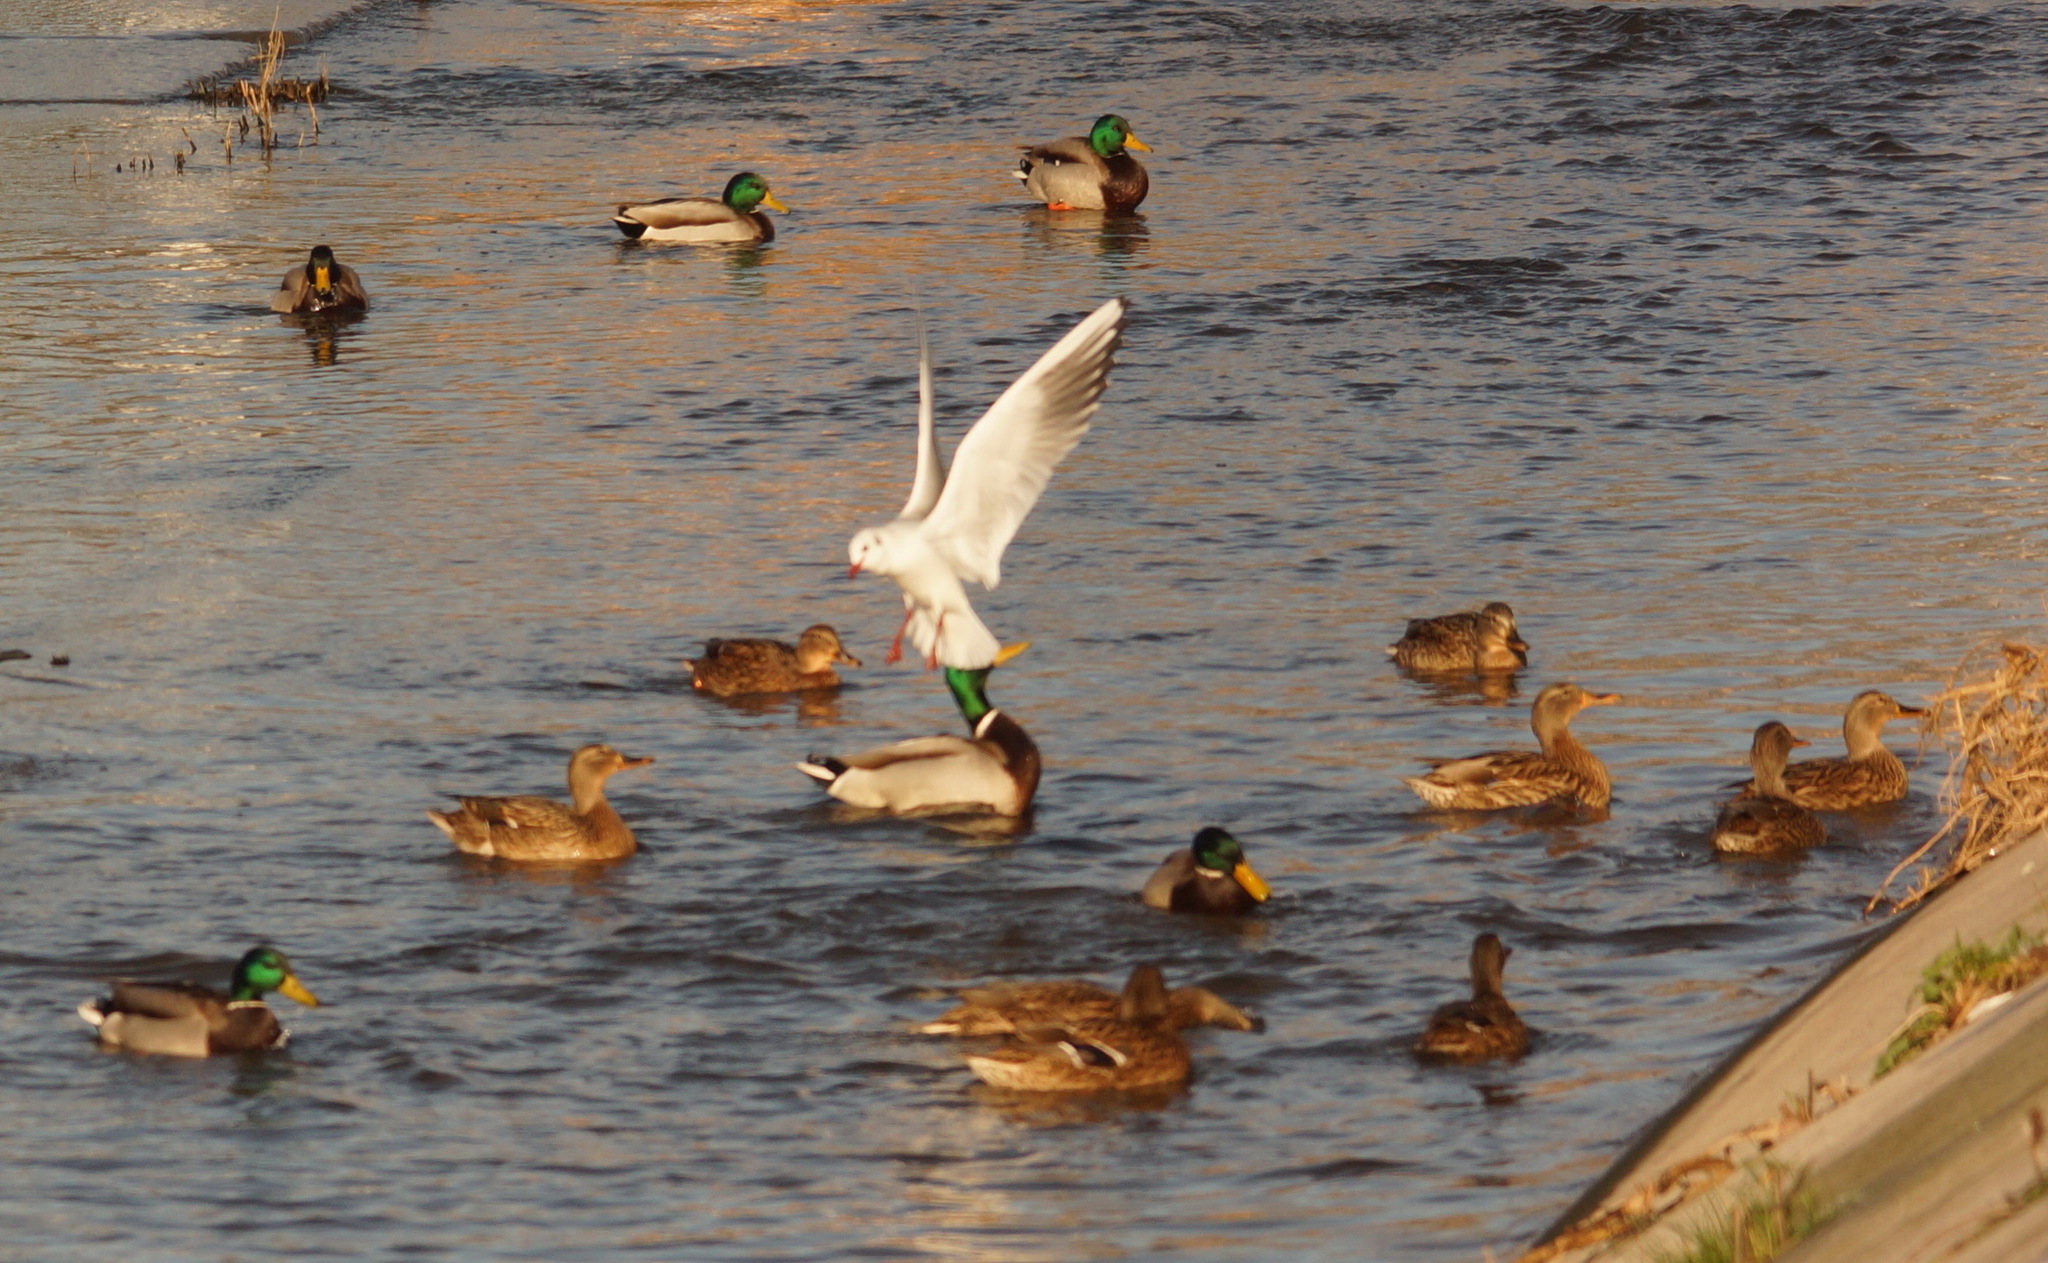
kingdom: Animalia
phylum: Chordata
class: Aves
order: Charadriiformes
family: Laridae
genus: Chroicocephalus
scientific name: Chroicocephalus ridibundus
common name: Black-headed gull
